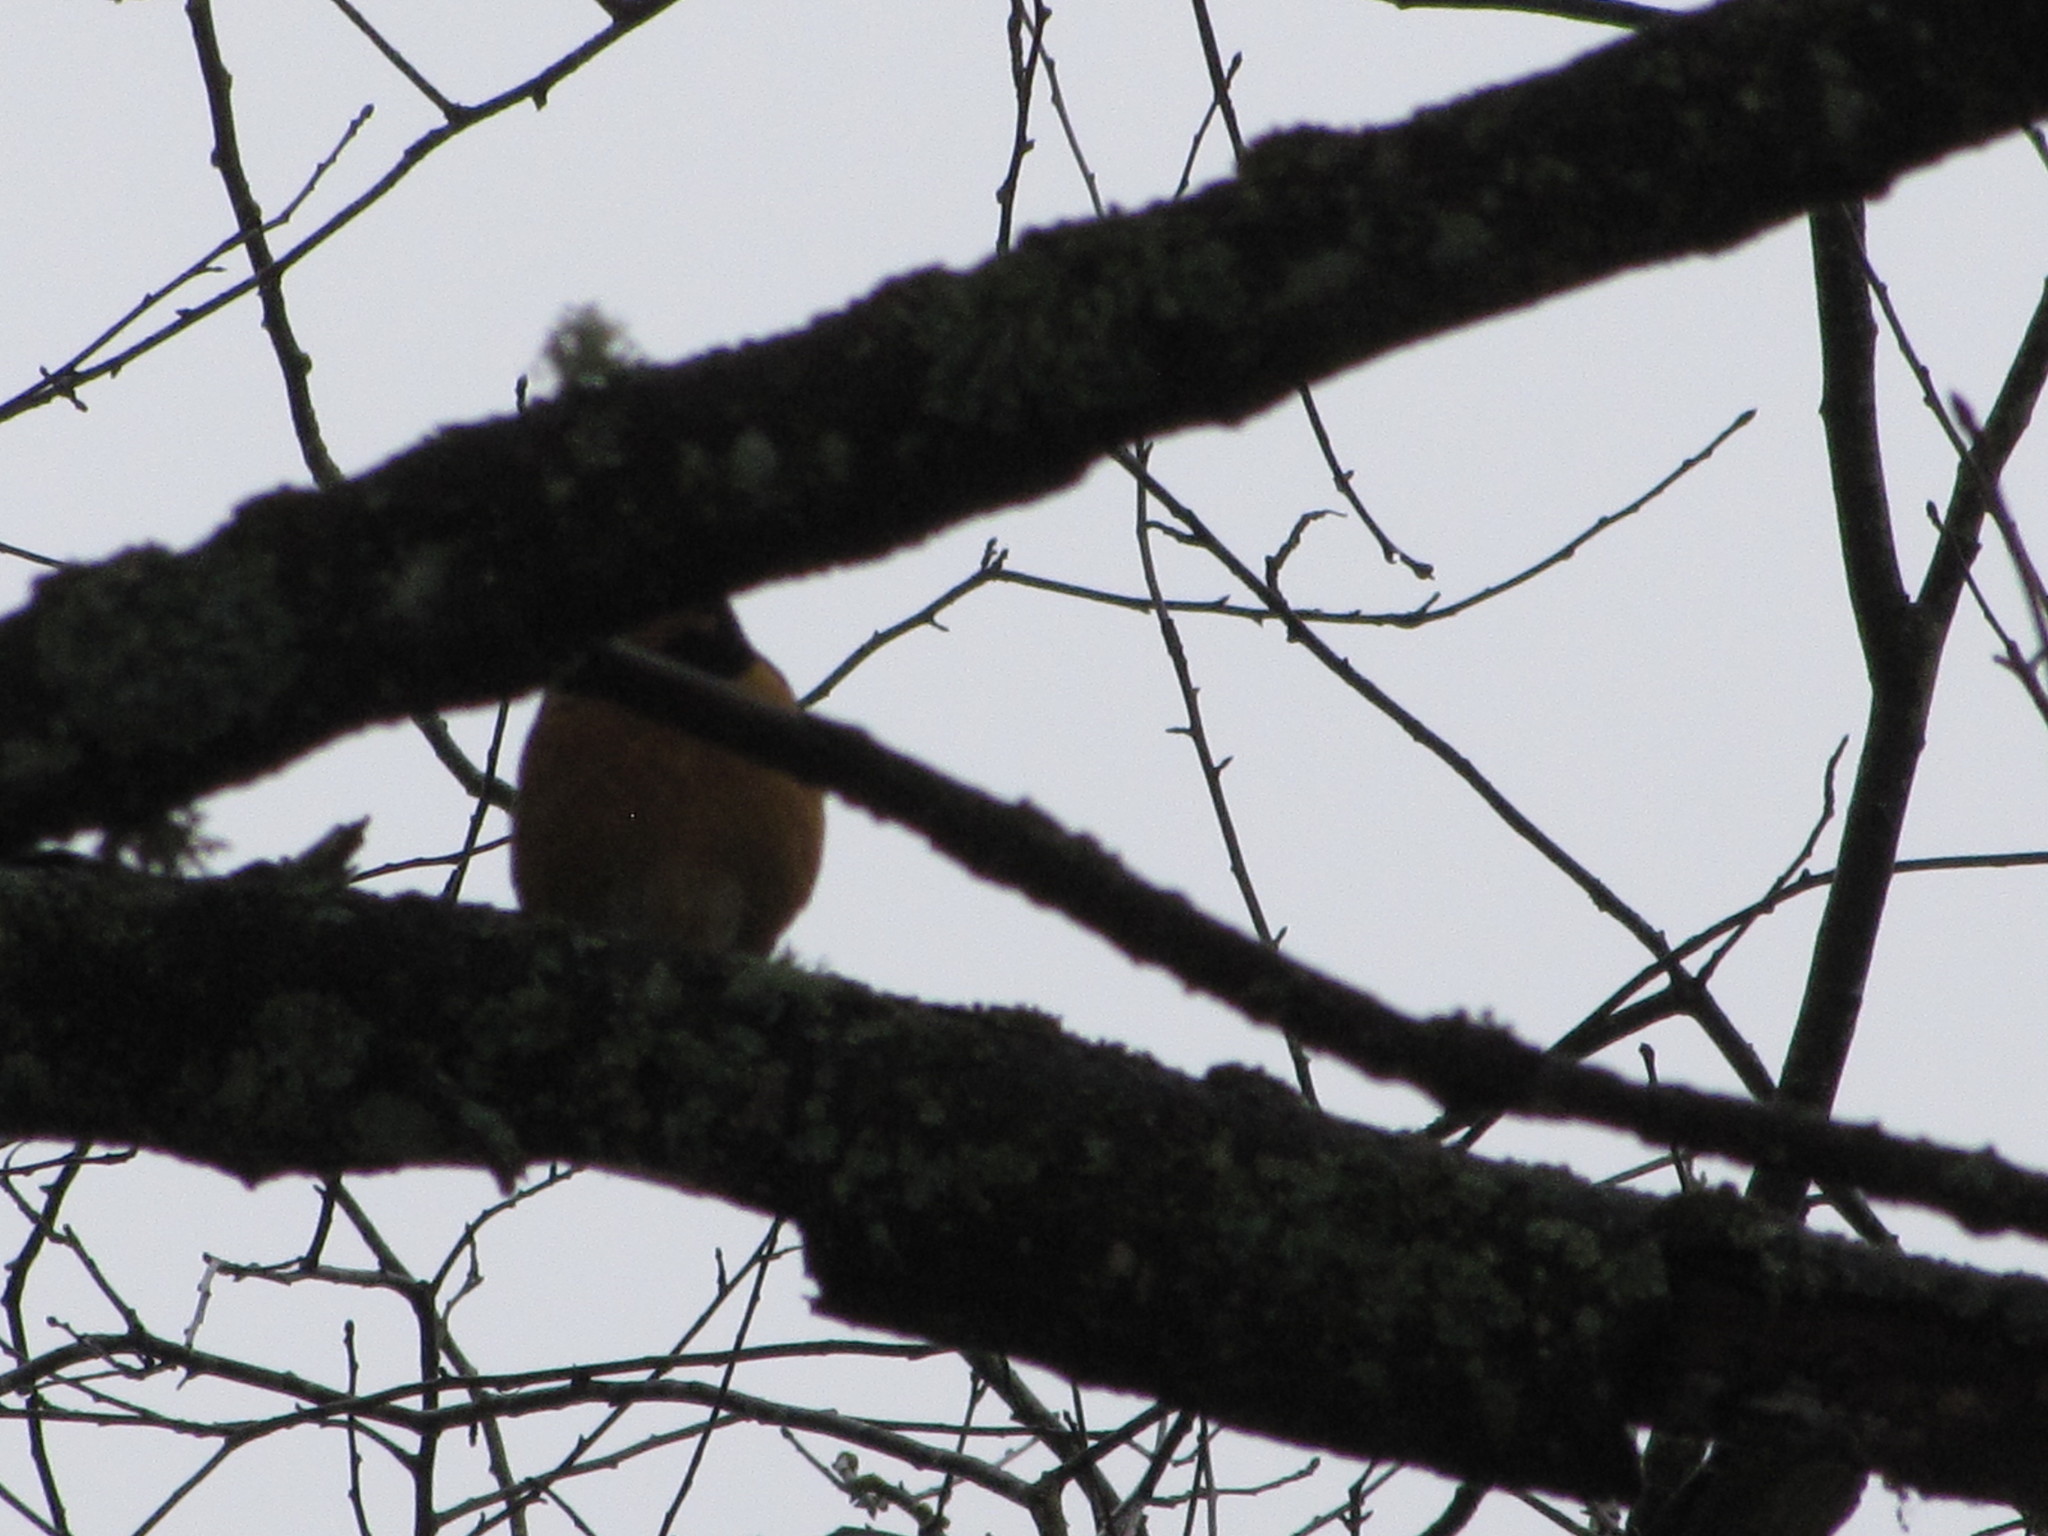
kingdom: Animalia
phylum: Chordata
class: Aves
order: Passeriformes
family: Turdidae
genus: Ixoreus
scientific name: Ixoreus naevius
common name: Varied thrush
